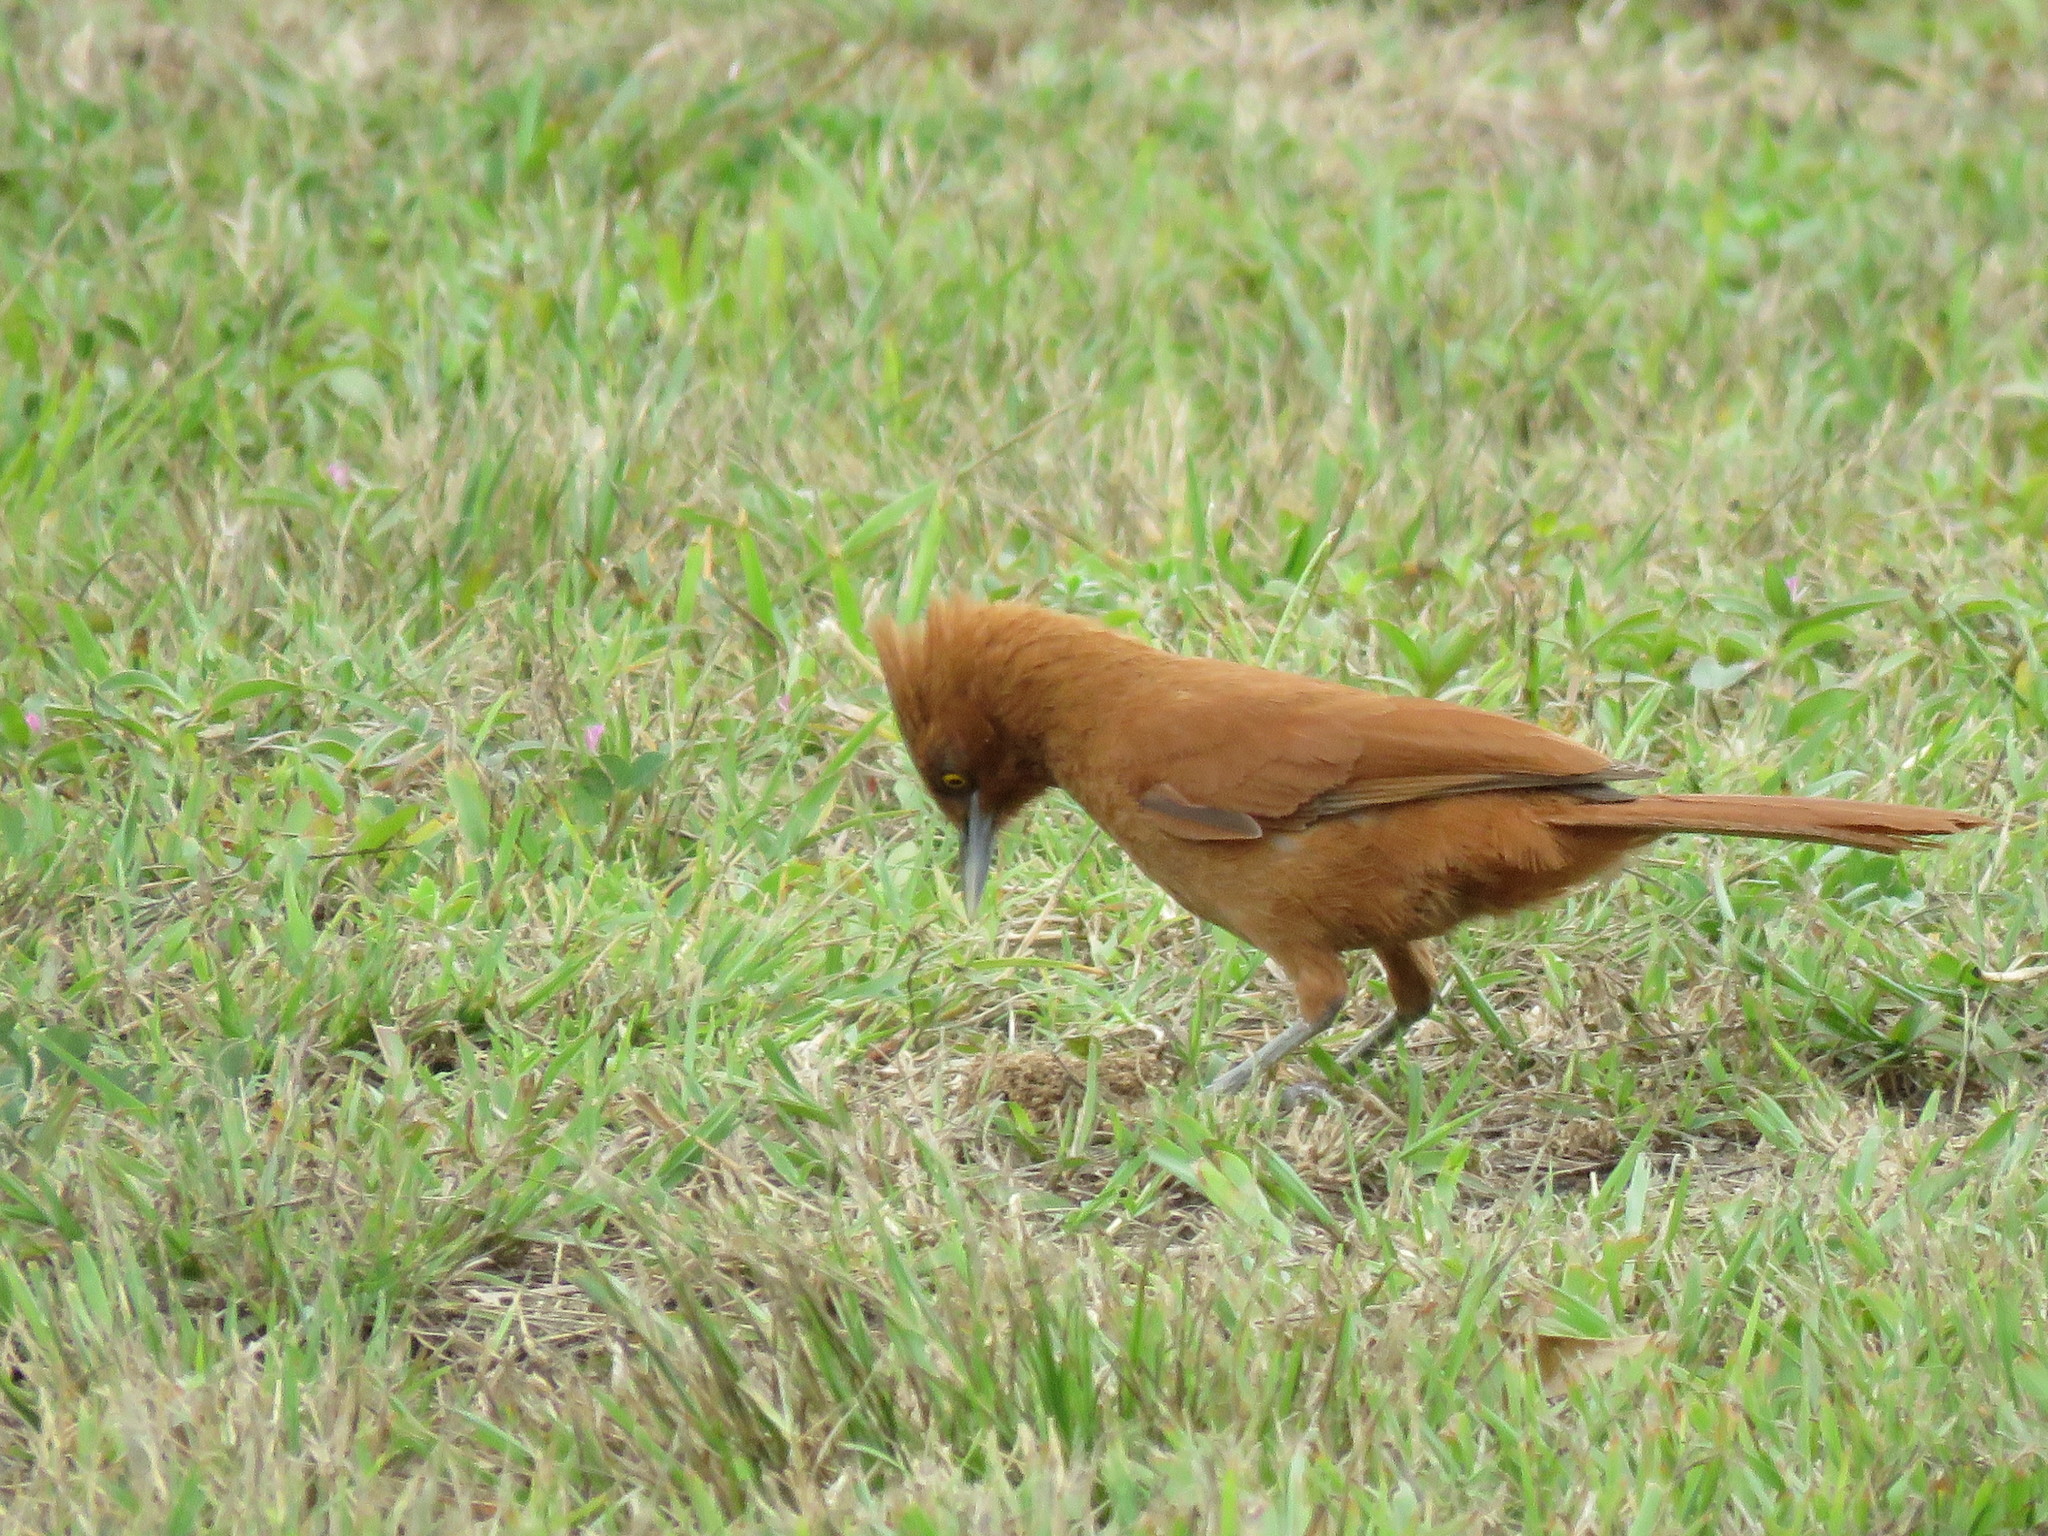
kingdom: Animalia
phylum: Chordata
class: Aves
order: Passeriformes
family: Furnariidae
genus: Pseudoseisura
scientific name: Pseudoseisura unirufa
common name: Grey-crested cacholote
